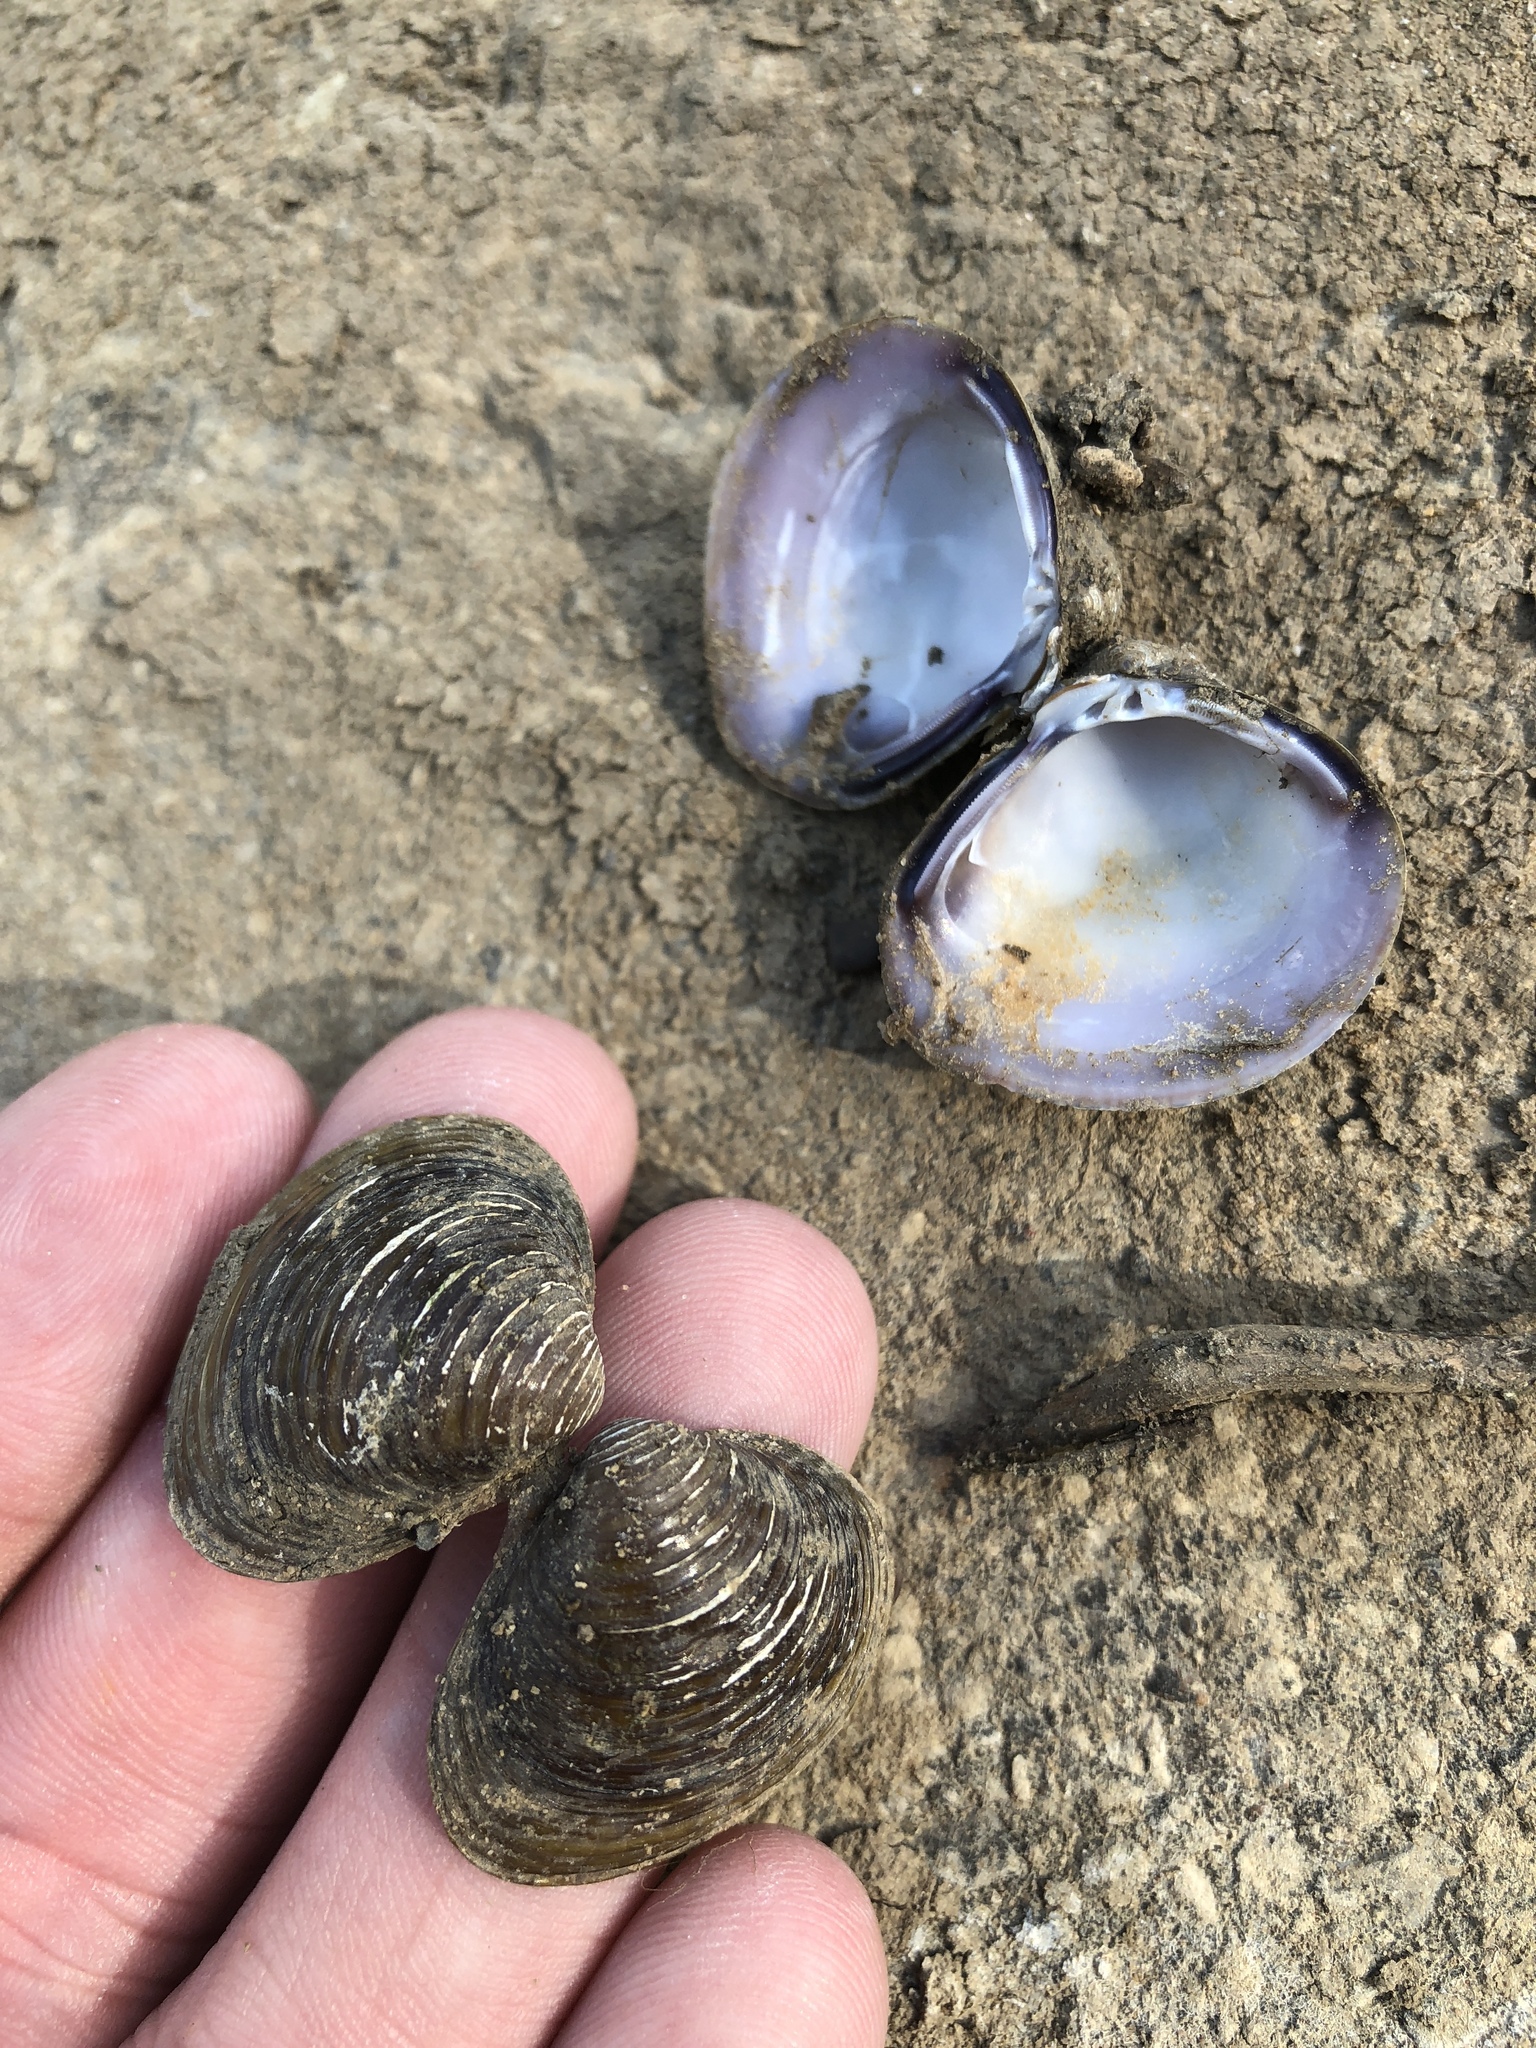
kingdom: Animalia
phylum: Mollusca
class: Bivalvia
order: Venerida
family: Cyrenidae
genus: Corbicula
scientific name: Corbicula fluminea
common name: Asian clam
